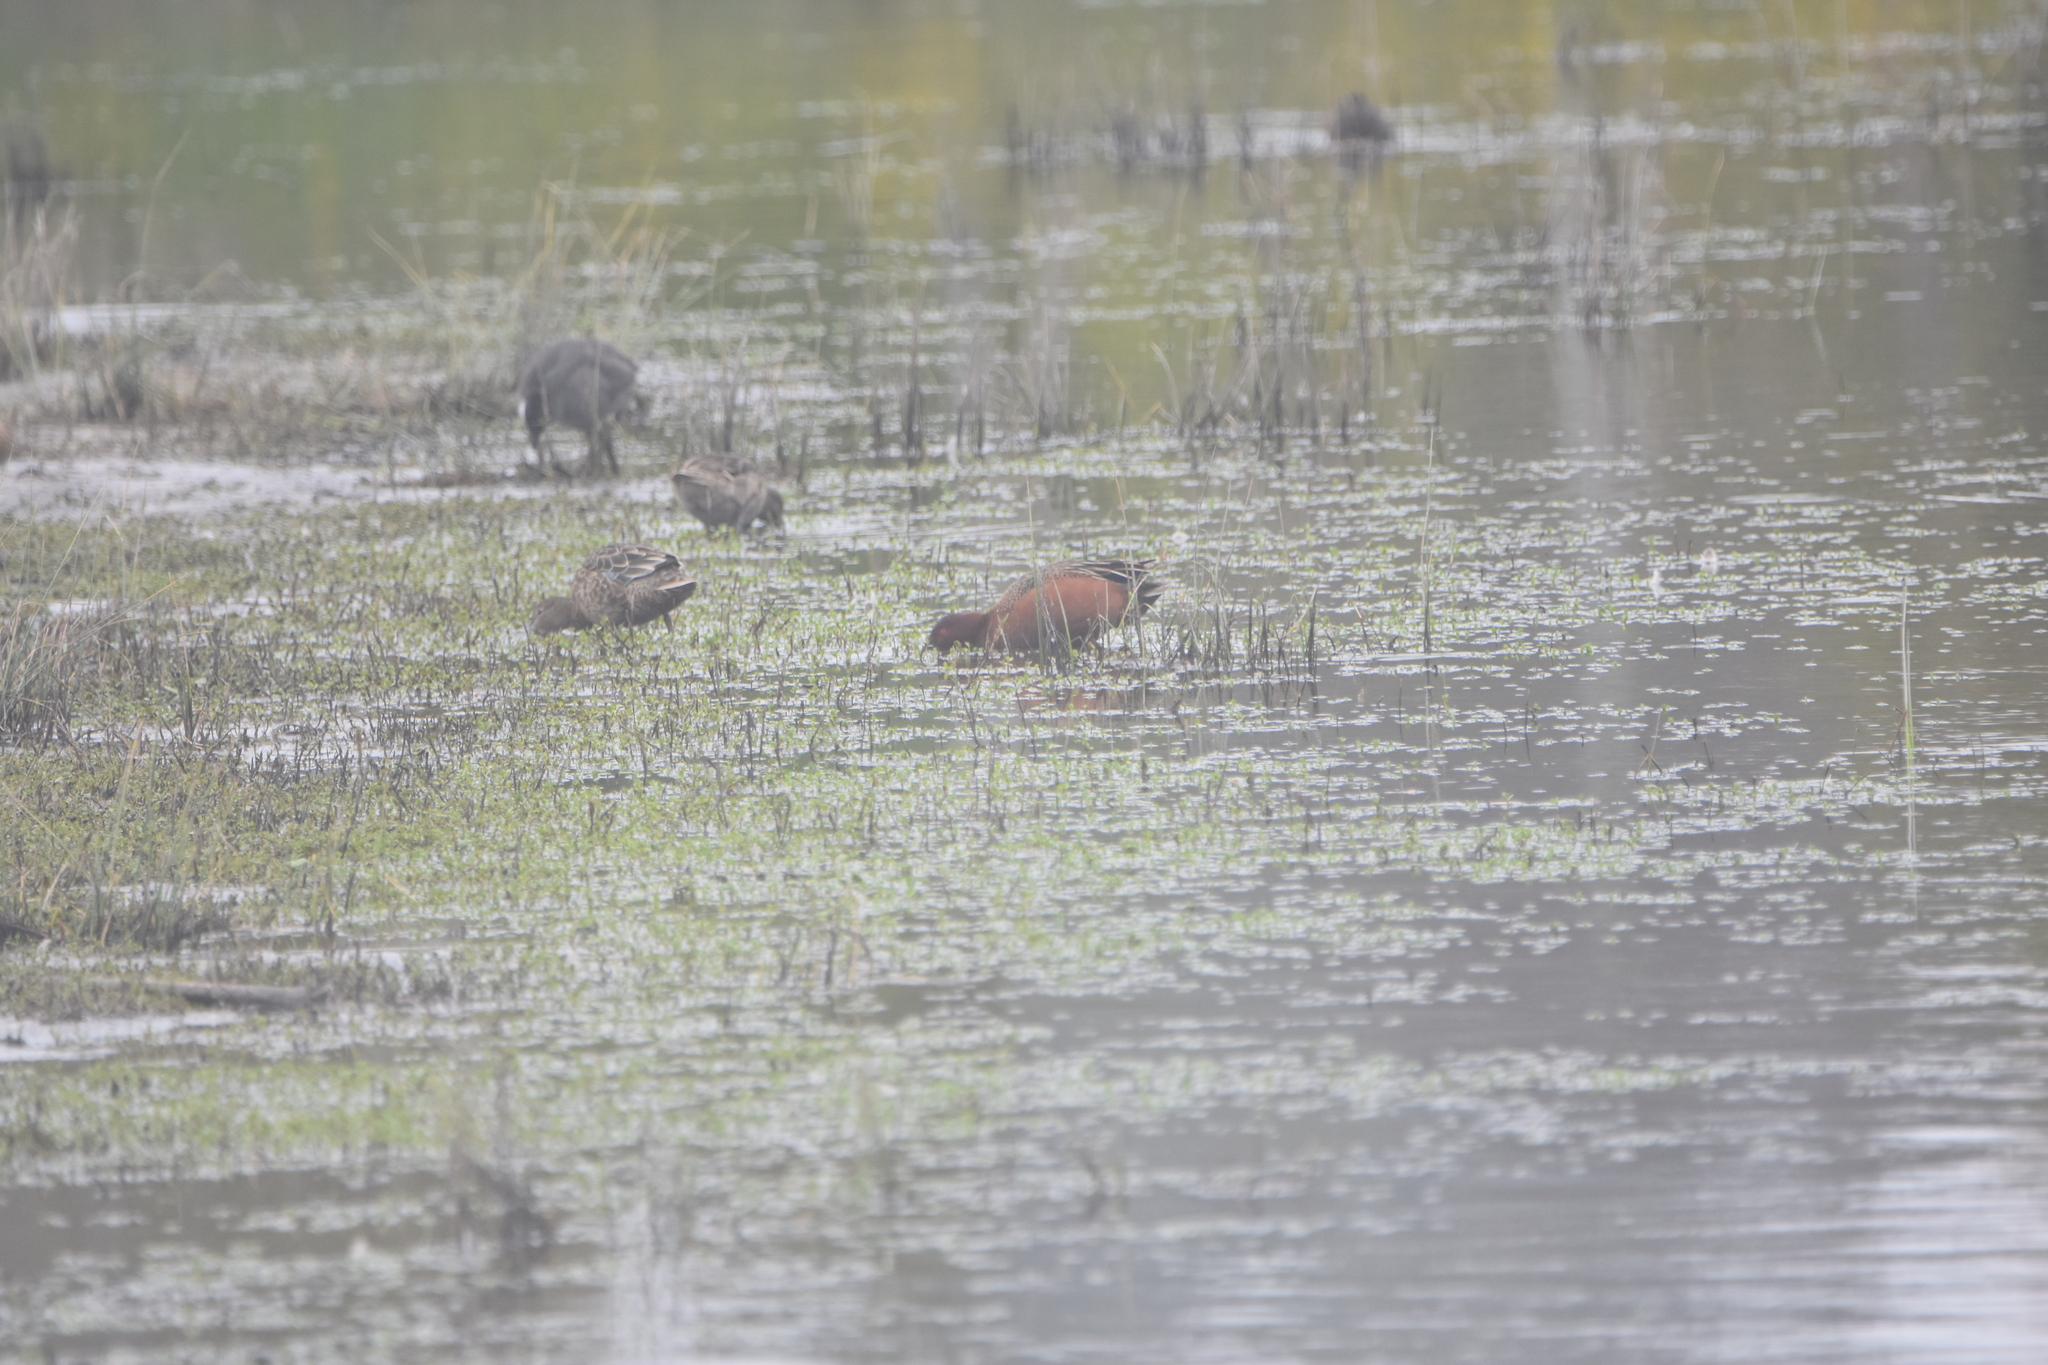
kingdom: Animalia
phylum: Chordata
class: Aves
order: Anseriformes
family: Anatidae
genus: Spatula
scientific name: Spatula cyanoptera
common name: Cinnamon teal
